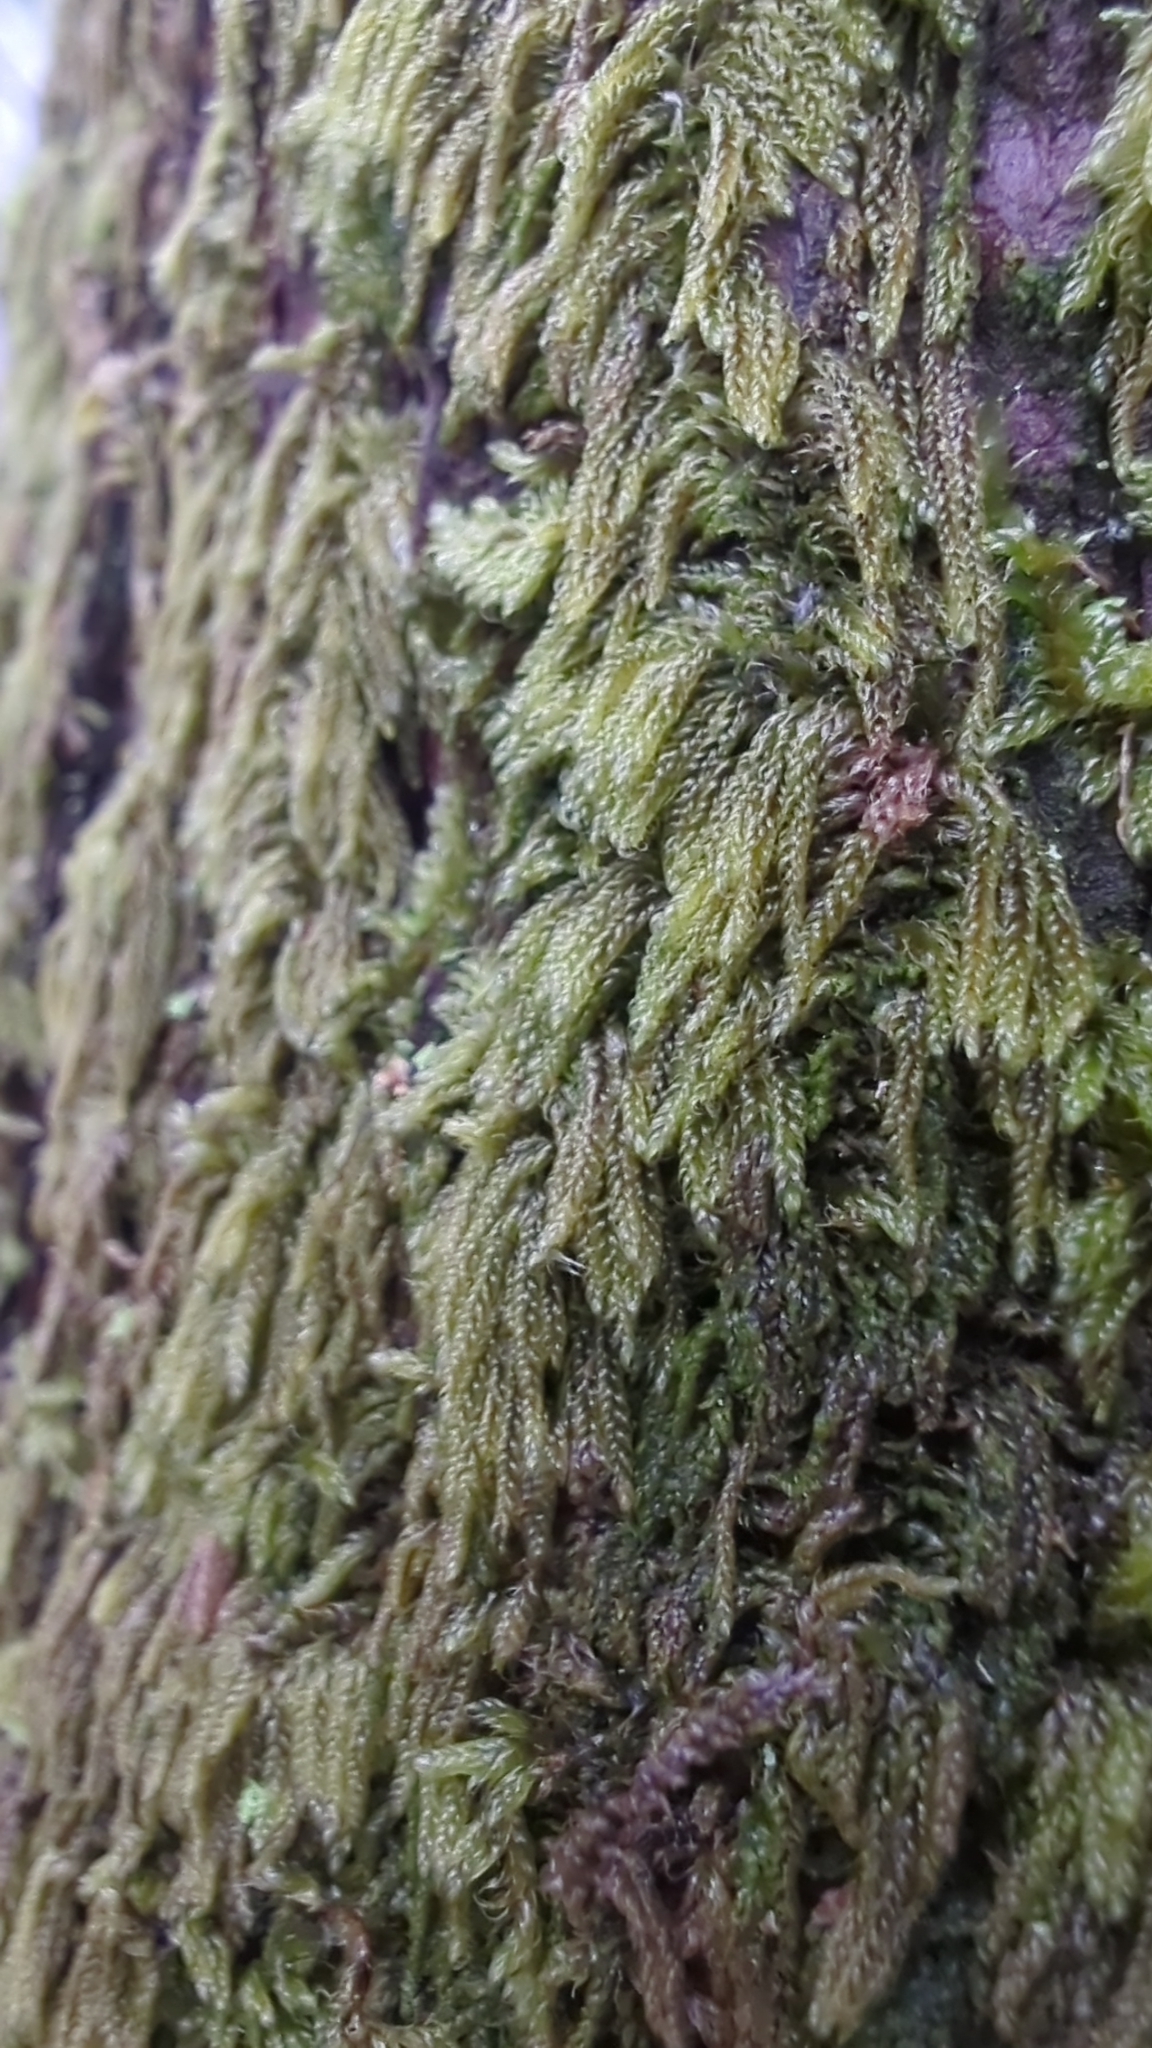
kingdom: Plantae
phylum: Bryophyta
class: Bryopsida
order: Hypnales
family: Pylaisiadelphaceae
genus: Trochophyllohypnum
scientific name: Trochophyllohypnum circinale
